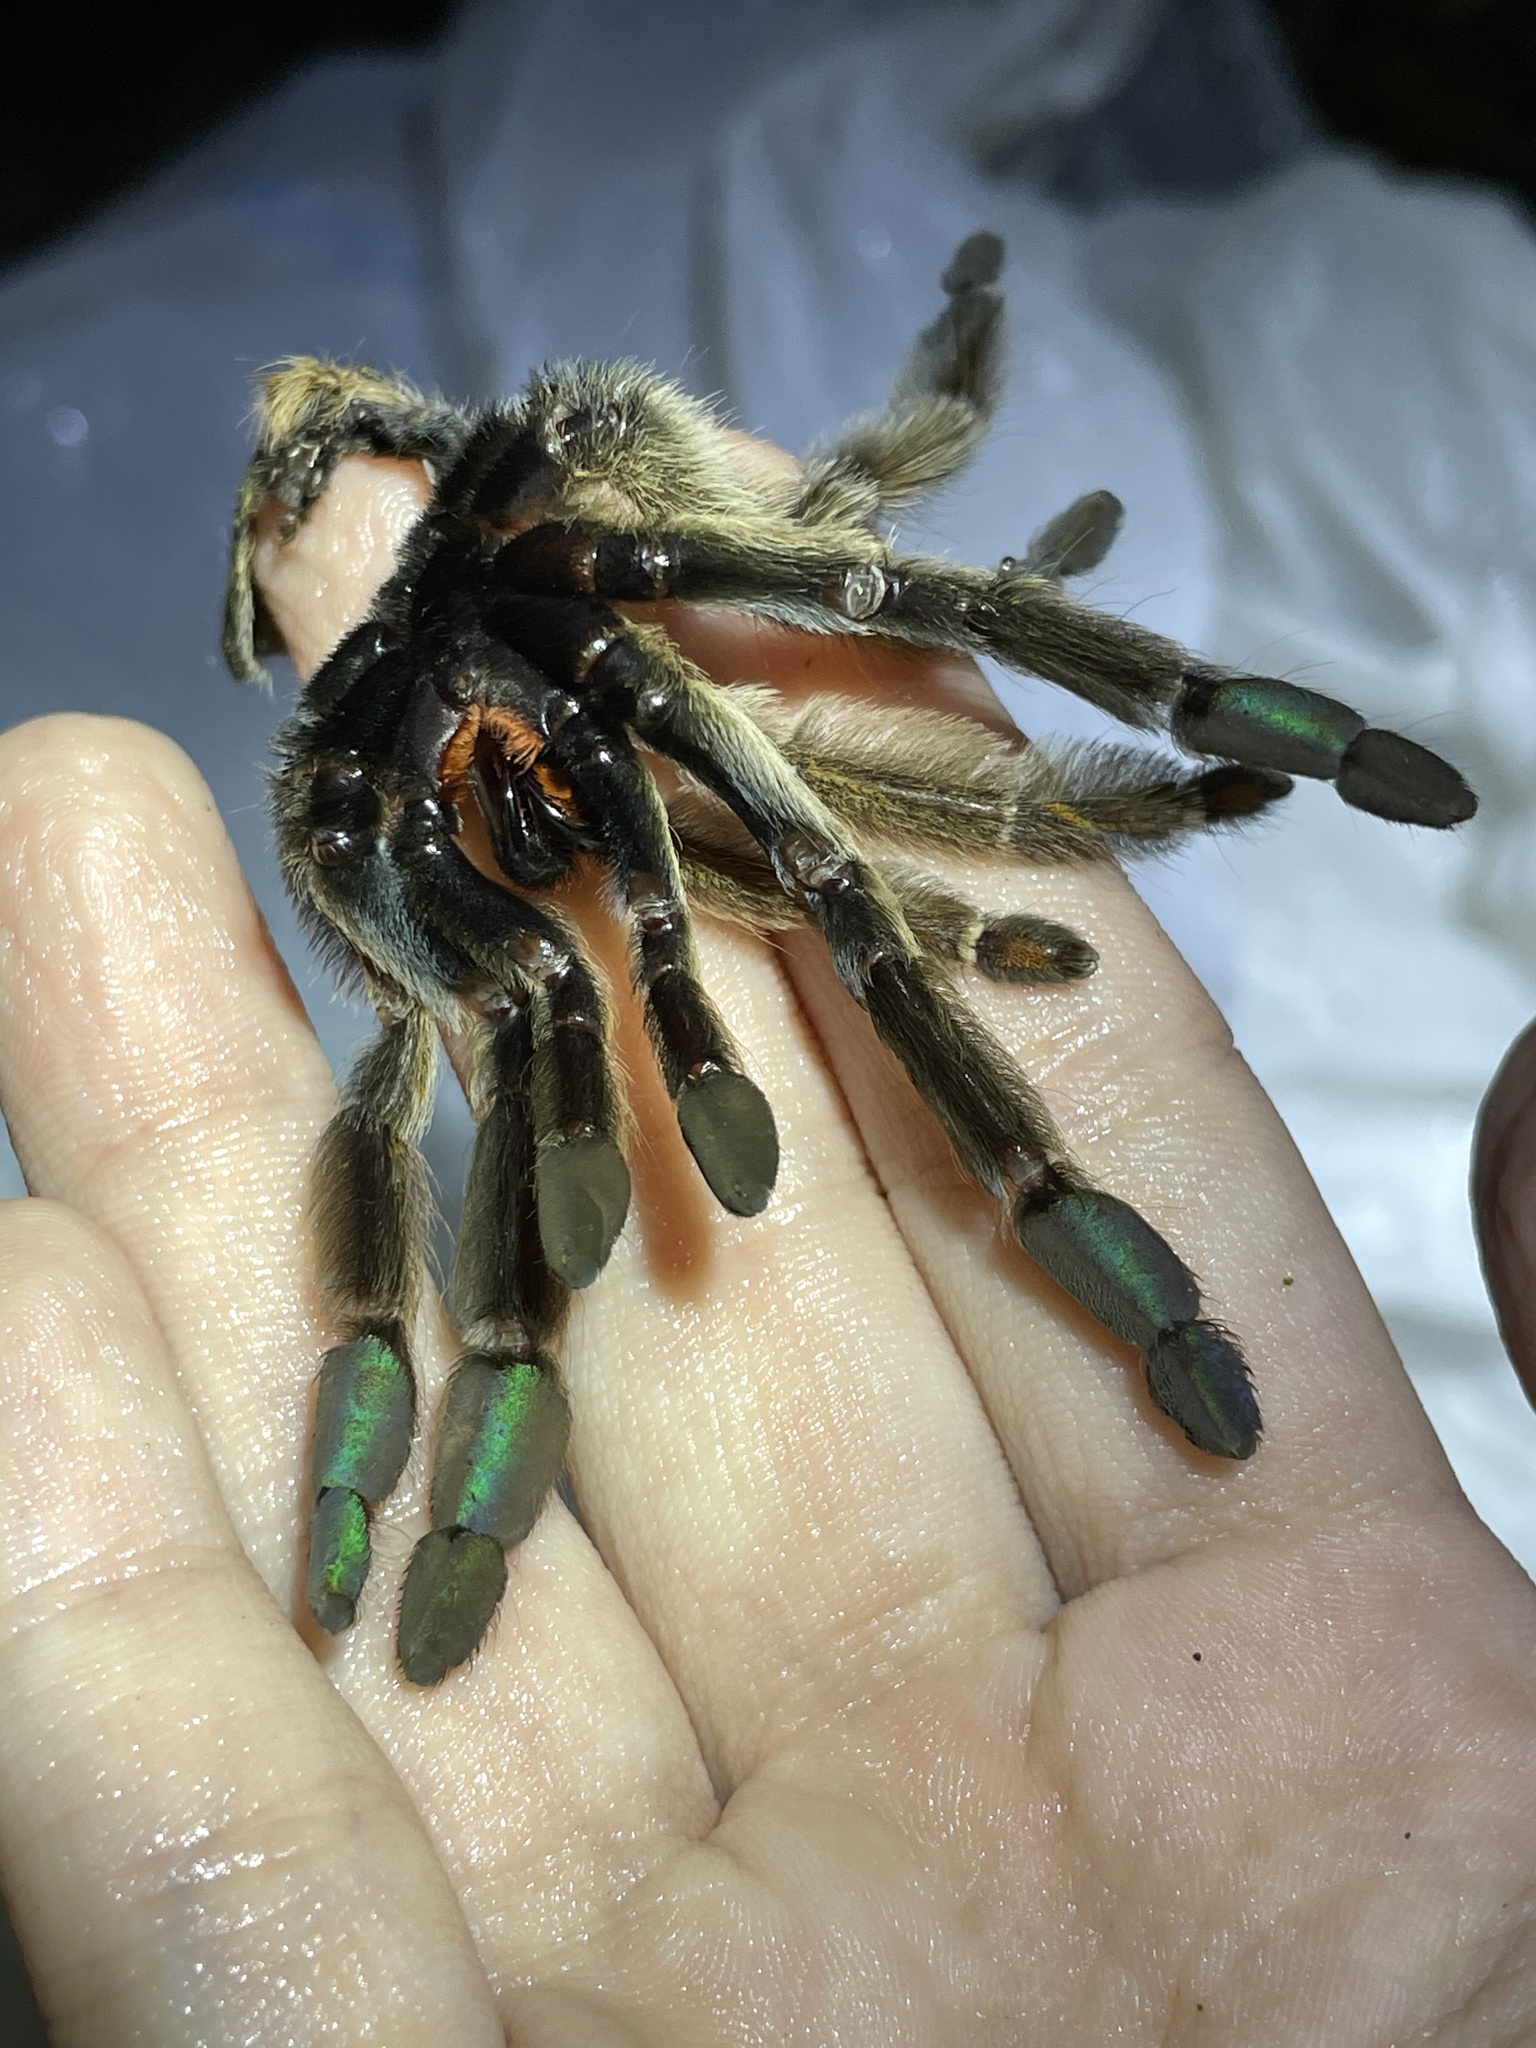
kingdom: Animalia
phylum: Arthropoda
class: Arachnida
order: Araneae
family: Theraphosidae
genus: Psalmopoeus
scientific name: Psalmopoeus cambridgei
